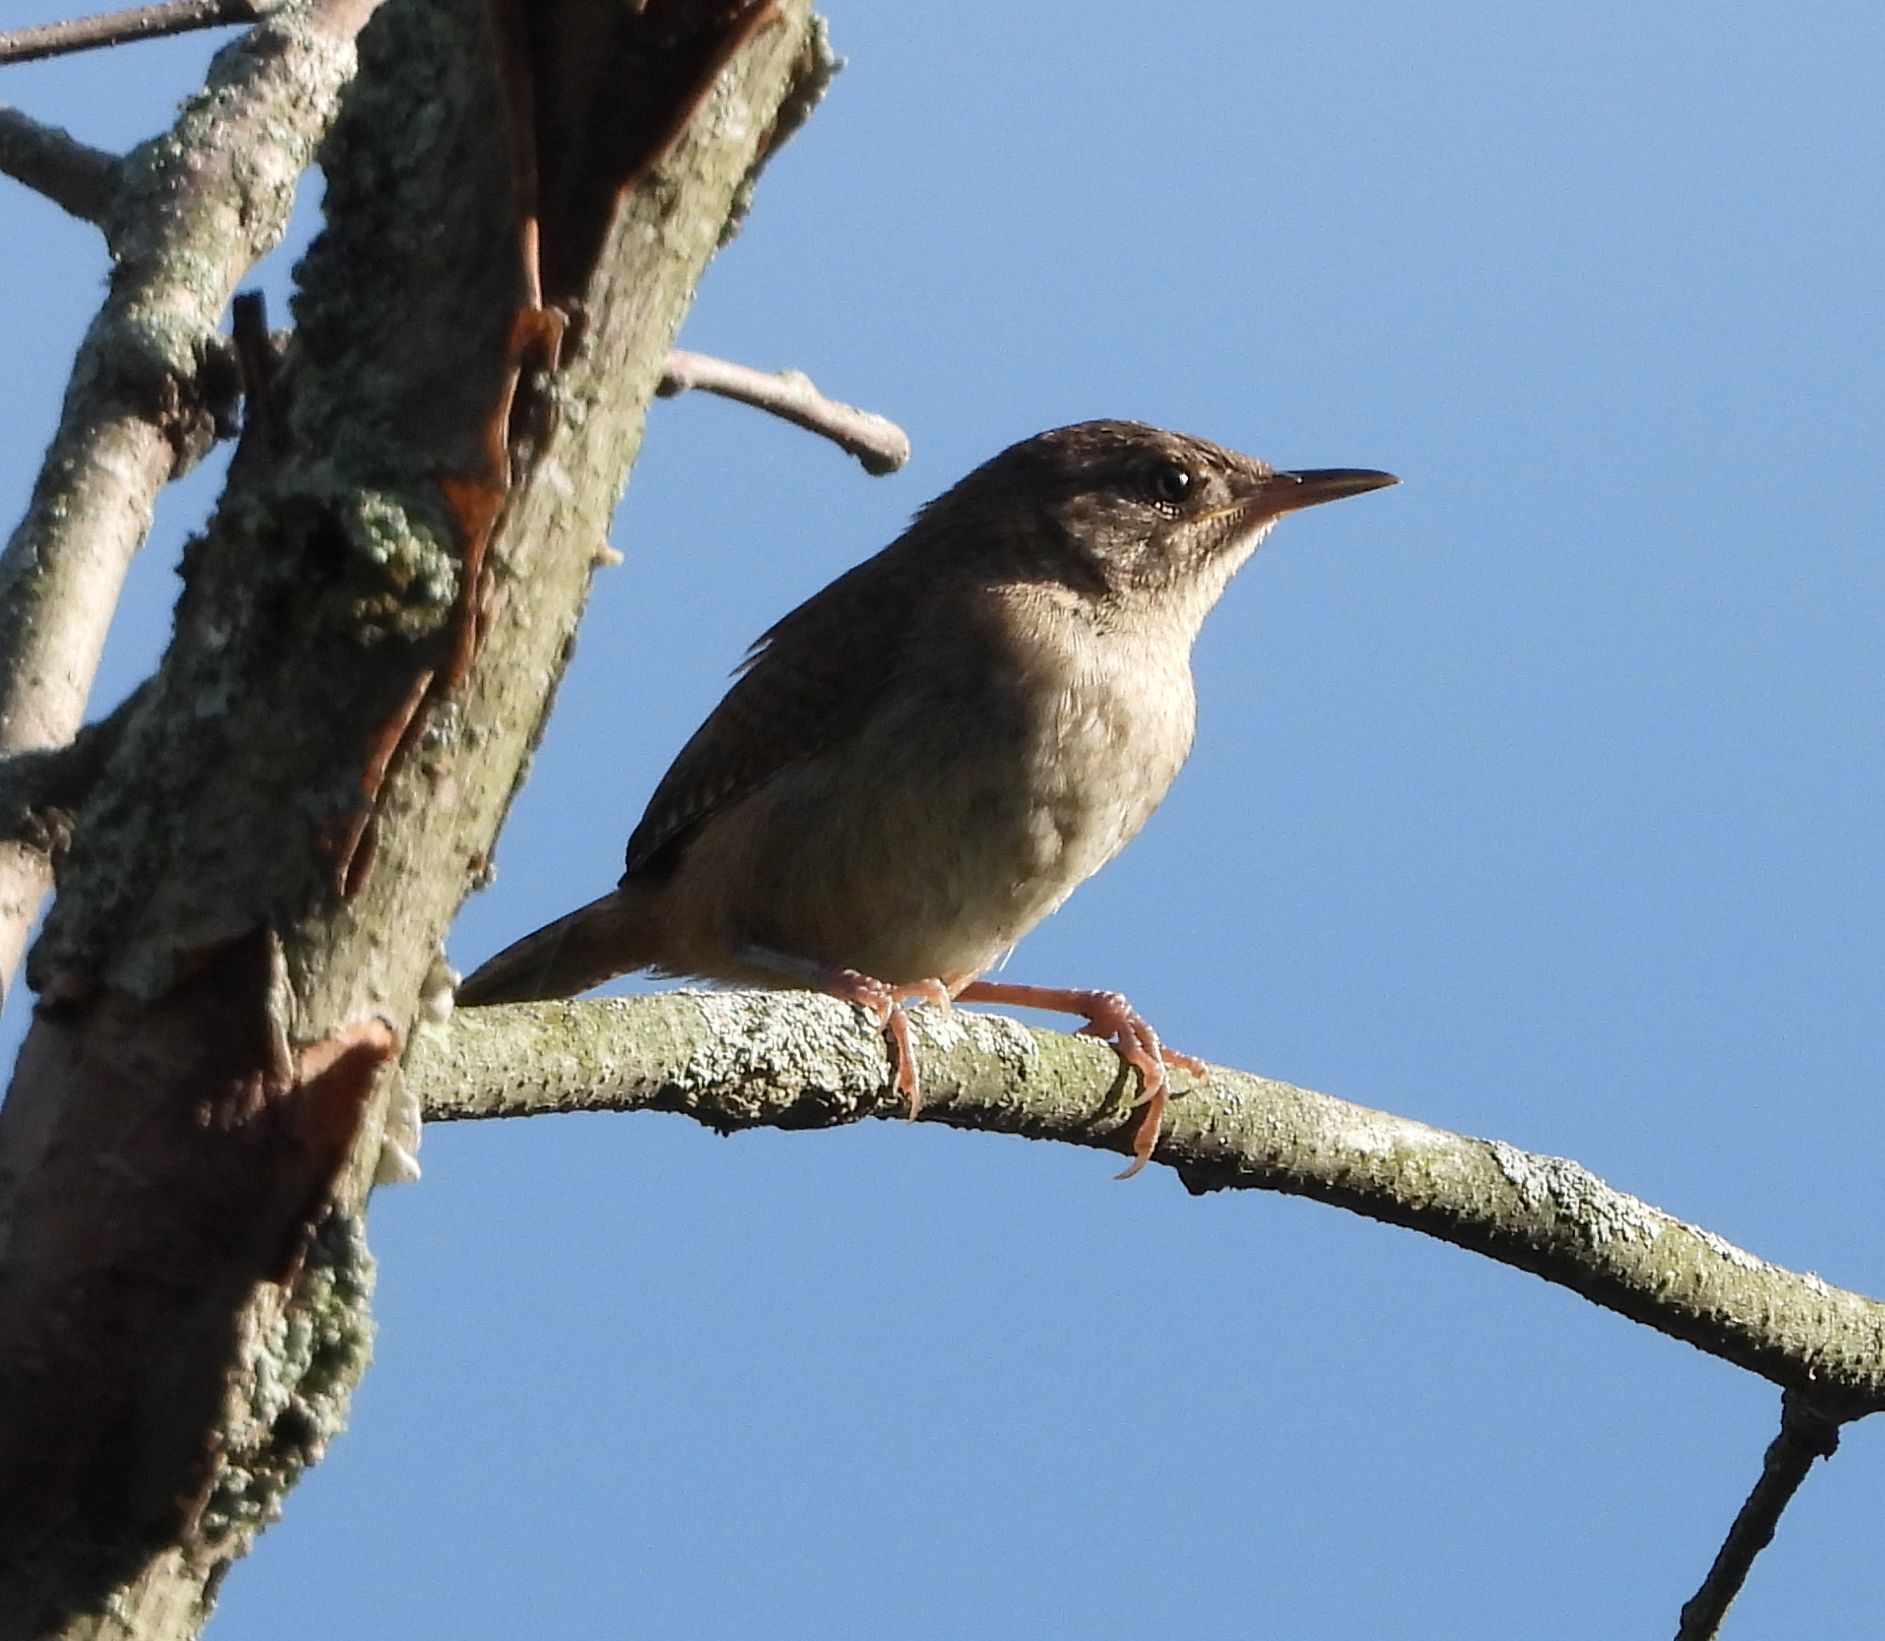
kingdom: Animalia
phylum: Chordata
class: Aves
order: Passeriformes
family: Troglodytidae
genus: Troglodytes
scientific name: Troglodytes aedon
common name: House wren
